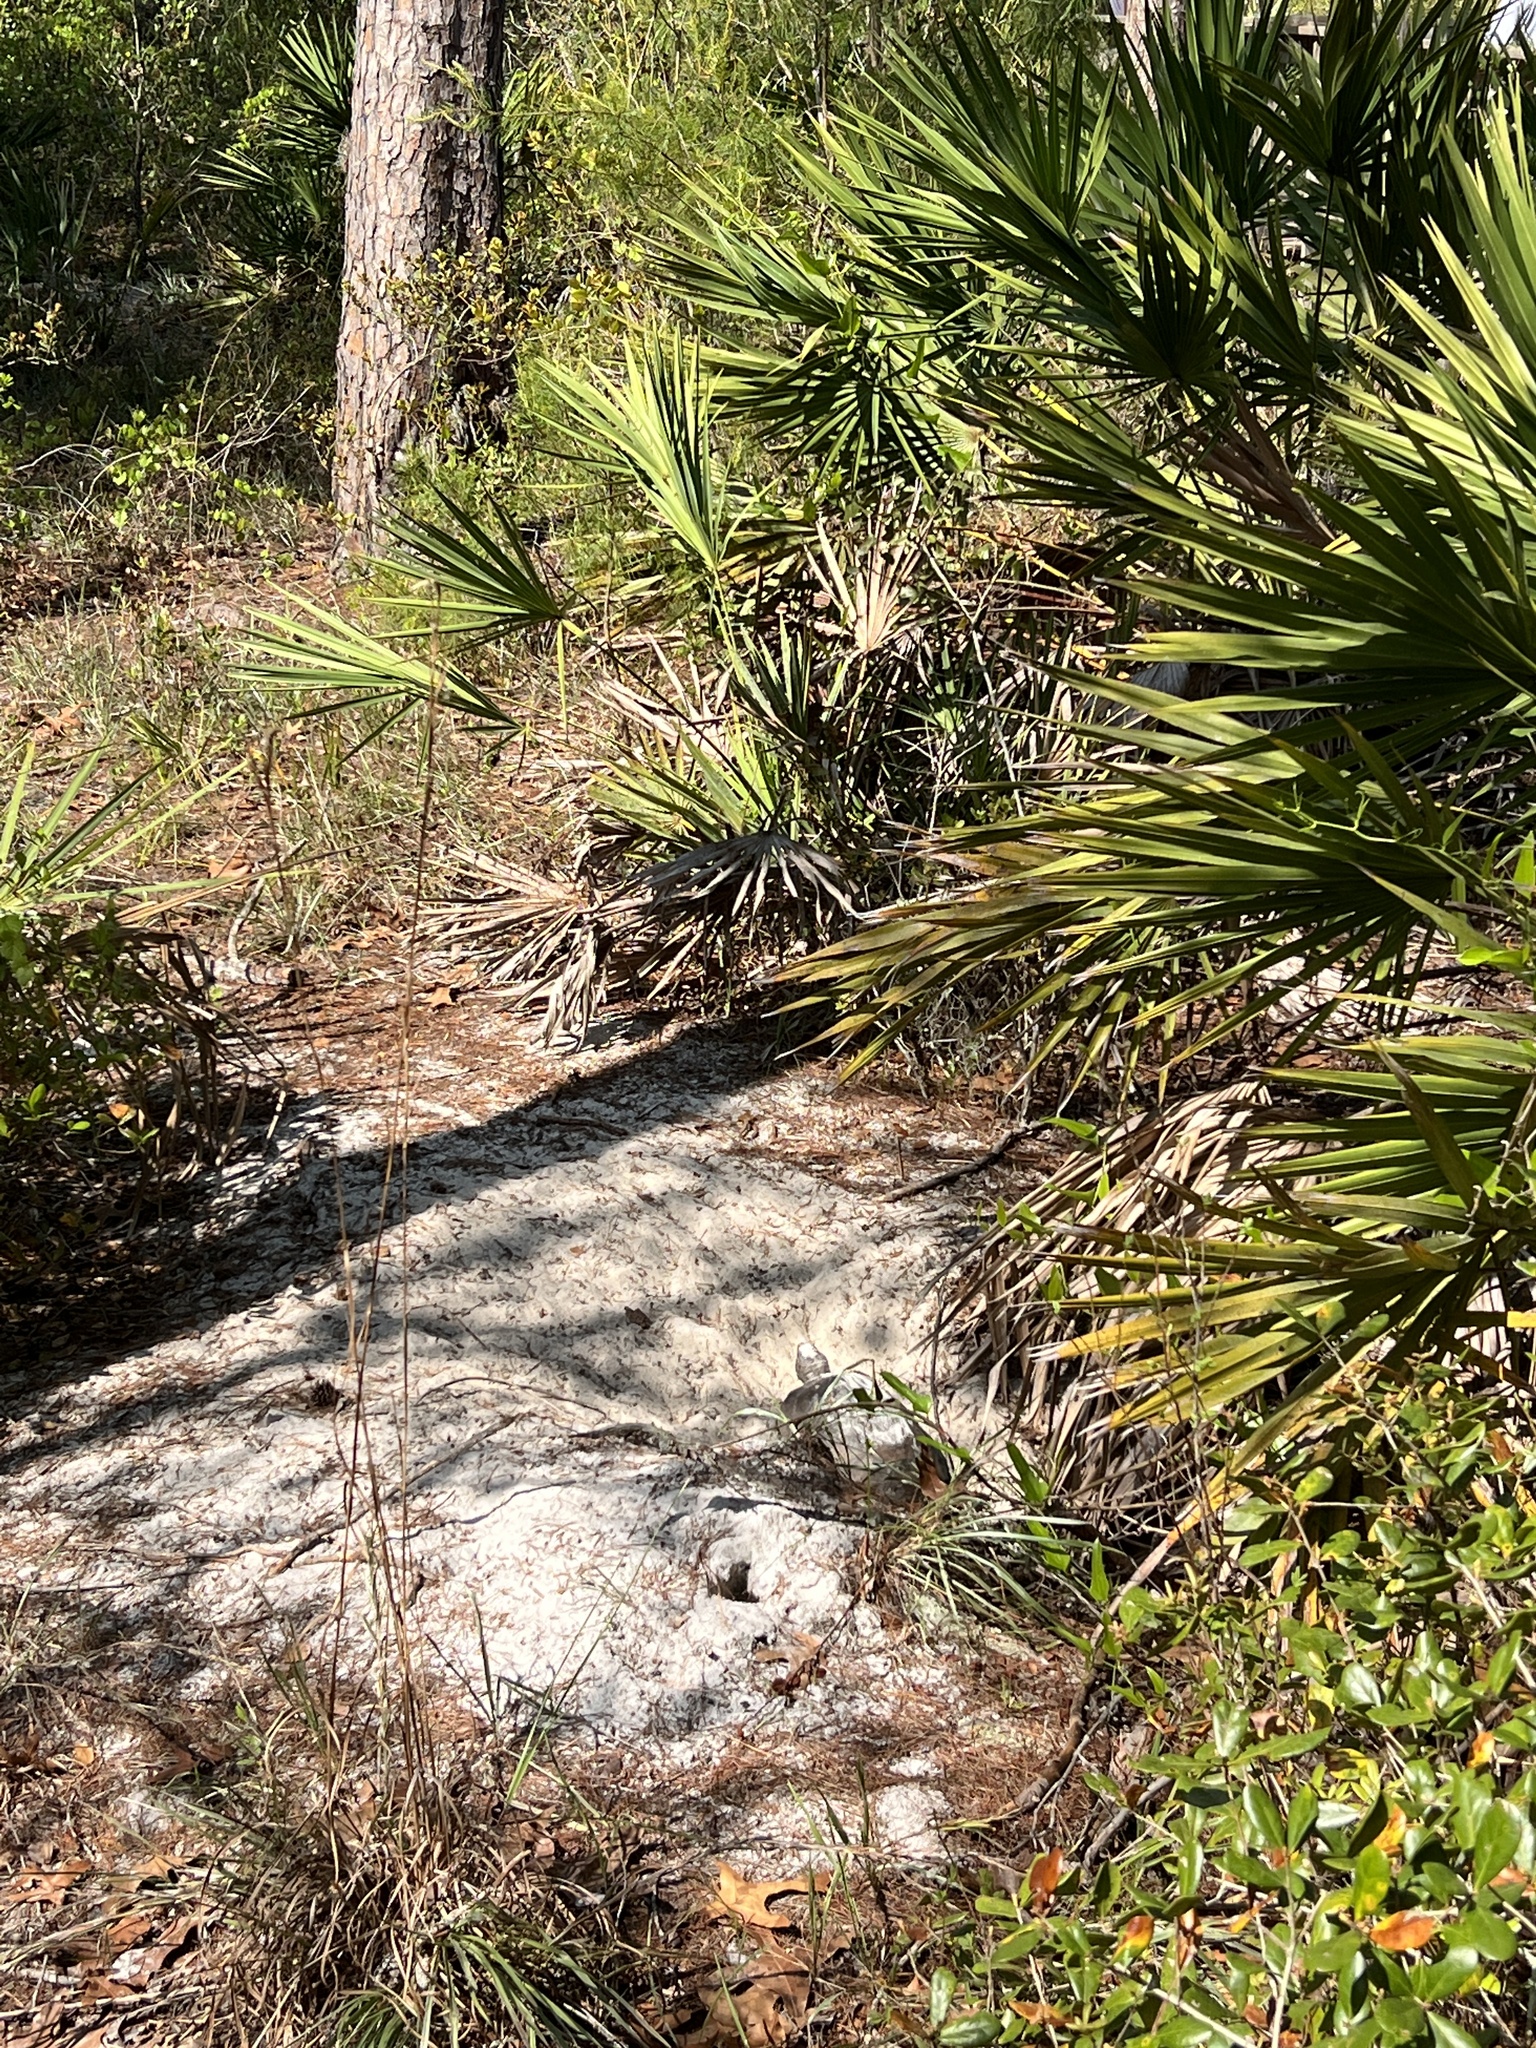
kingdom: Animalia
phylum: Chordata
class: Testudines
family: Testudinidae
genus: Gopherus
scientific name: Gopherus polyphemus
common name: Florida gopher tortoise
